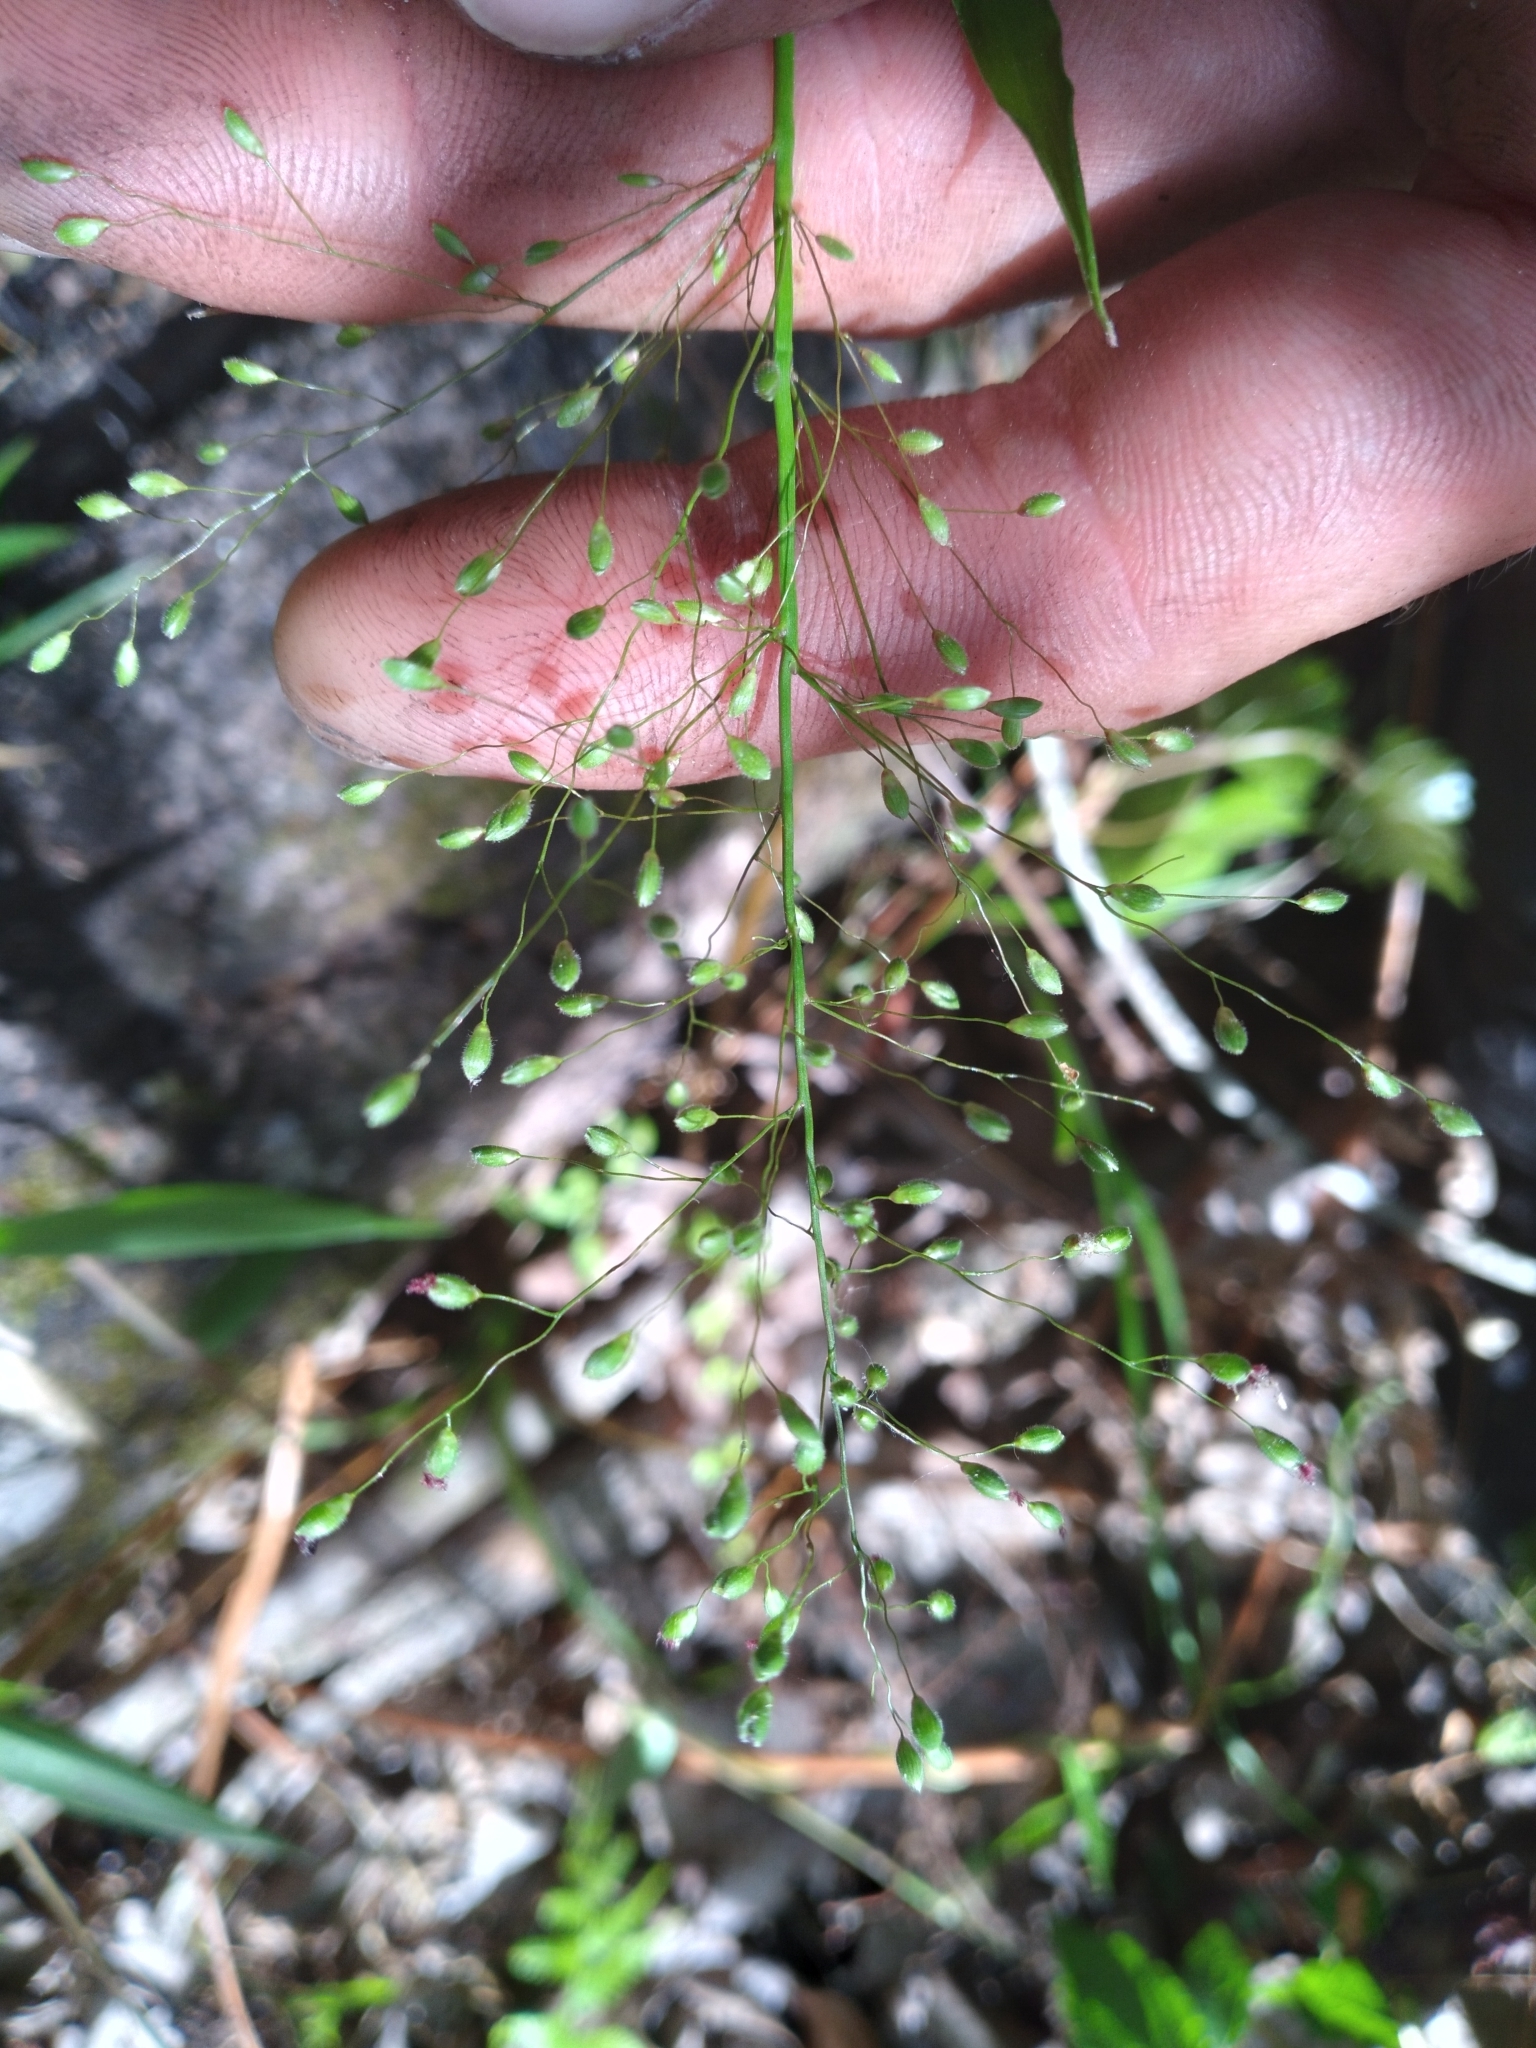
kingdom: Plantae
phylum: Tracheophyta
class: Liliopsida
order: Poales
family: Poaceae
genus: Dichanthelium
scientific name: Dichanthelium commutatum
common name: Variable witchgrass
